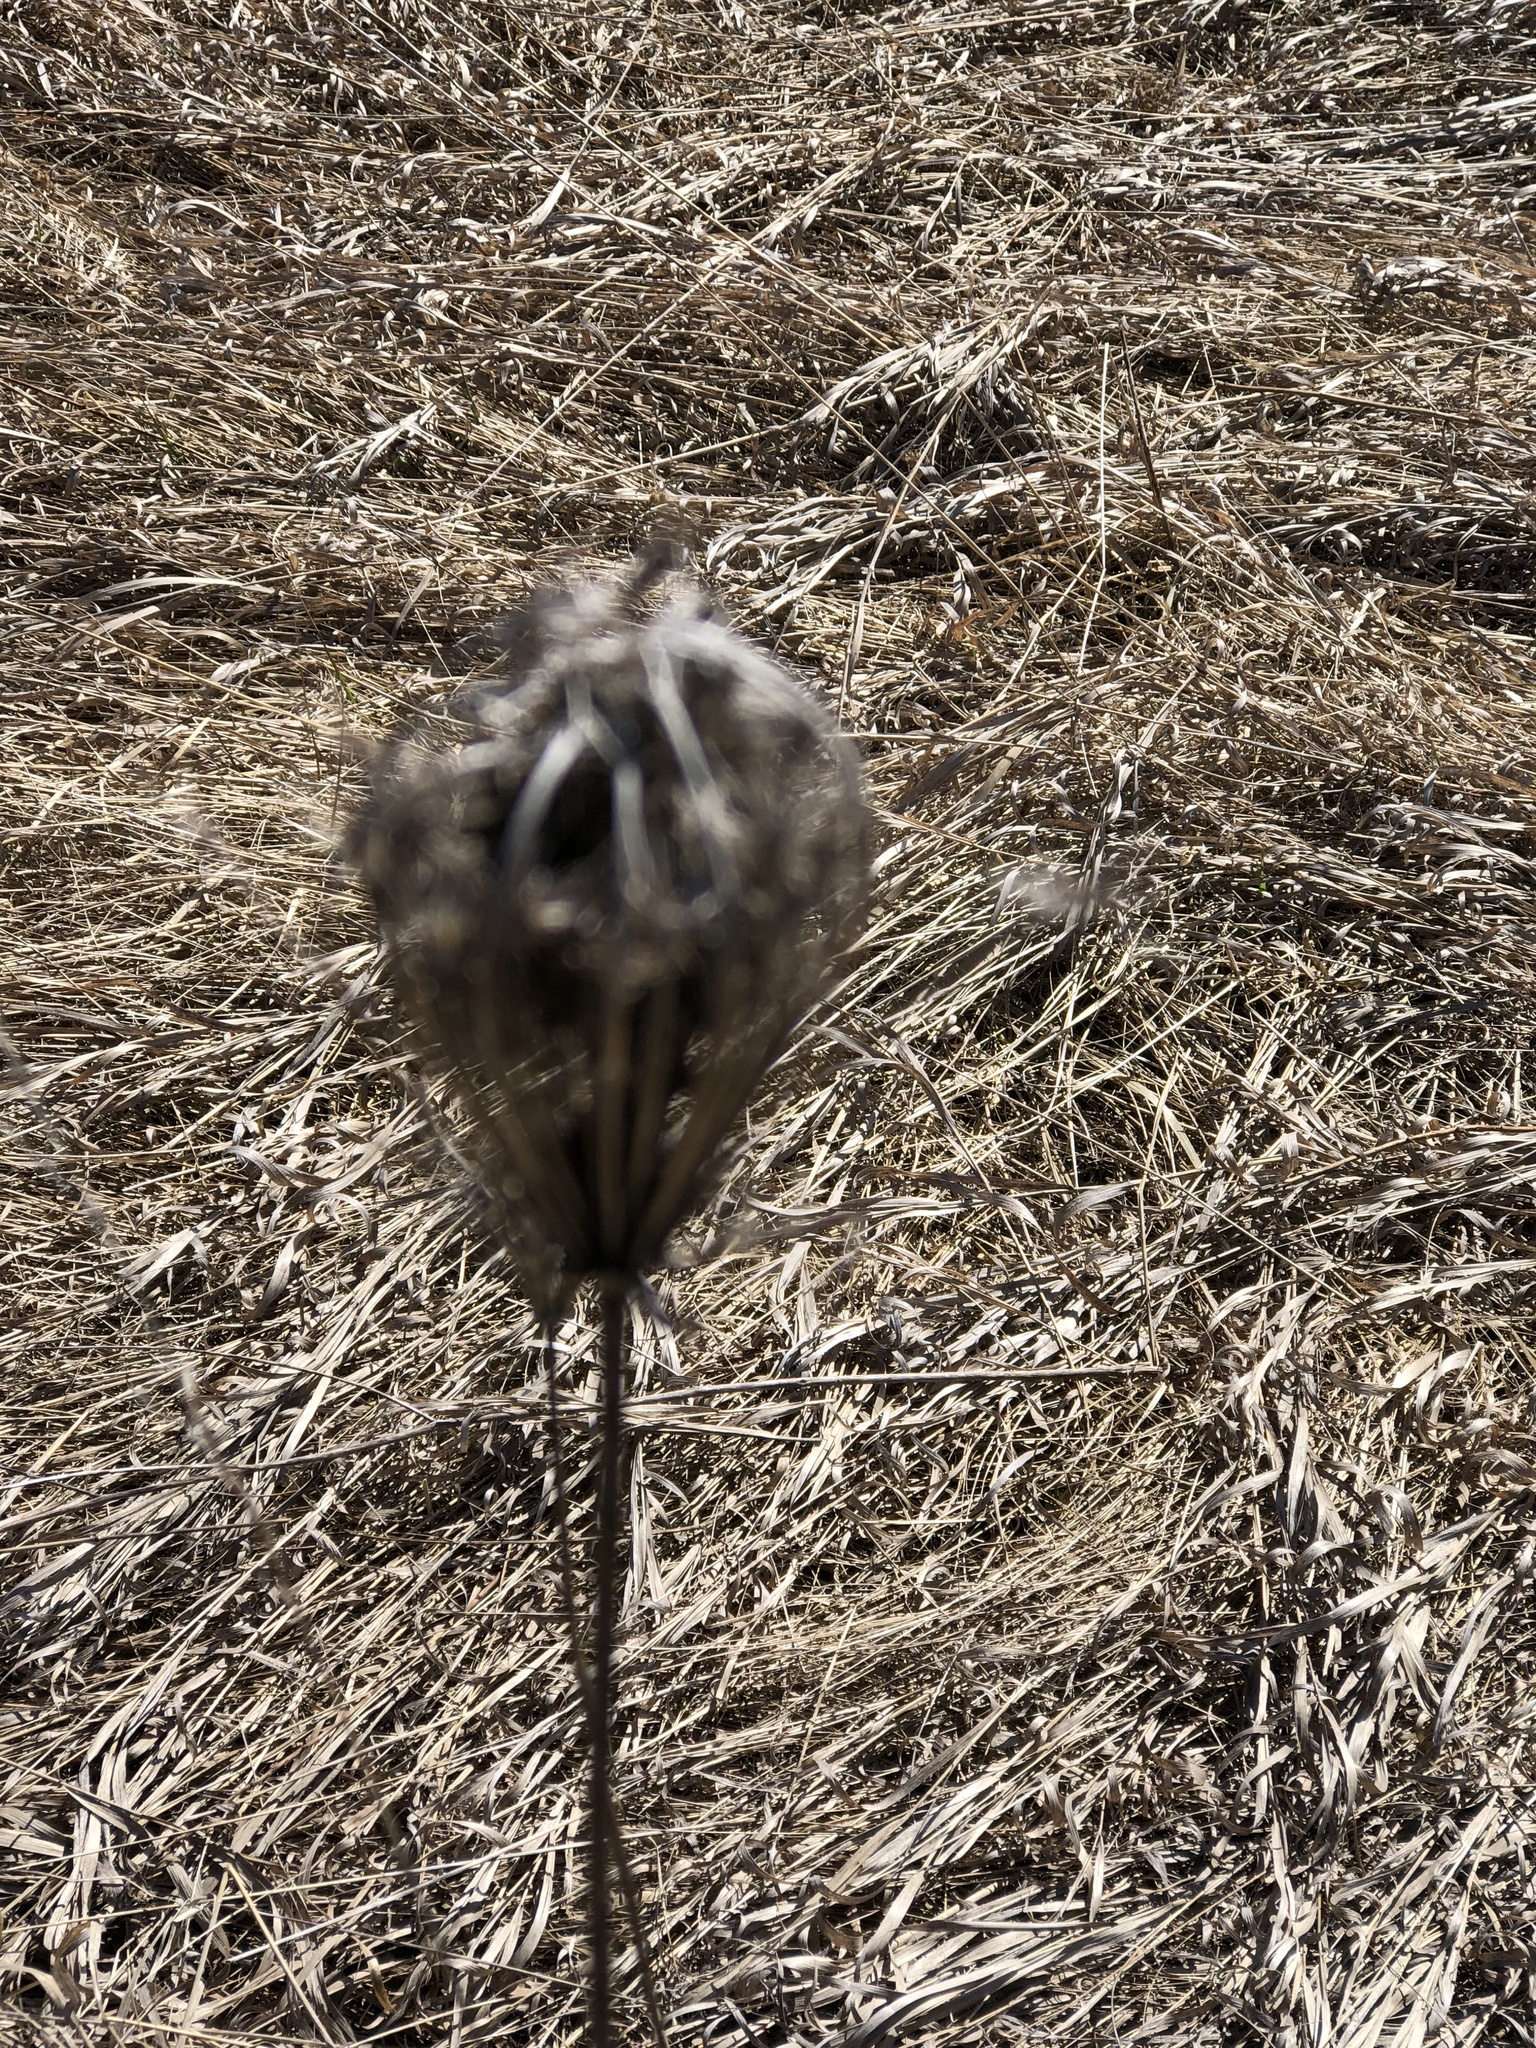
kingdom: Plantae
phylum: Tracheophyta
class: Magnoliopsida
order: Apiales
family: Apiaceae
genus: Daucus
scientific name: Daucus carota
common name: Wild carrot
